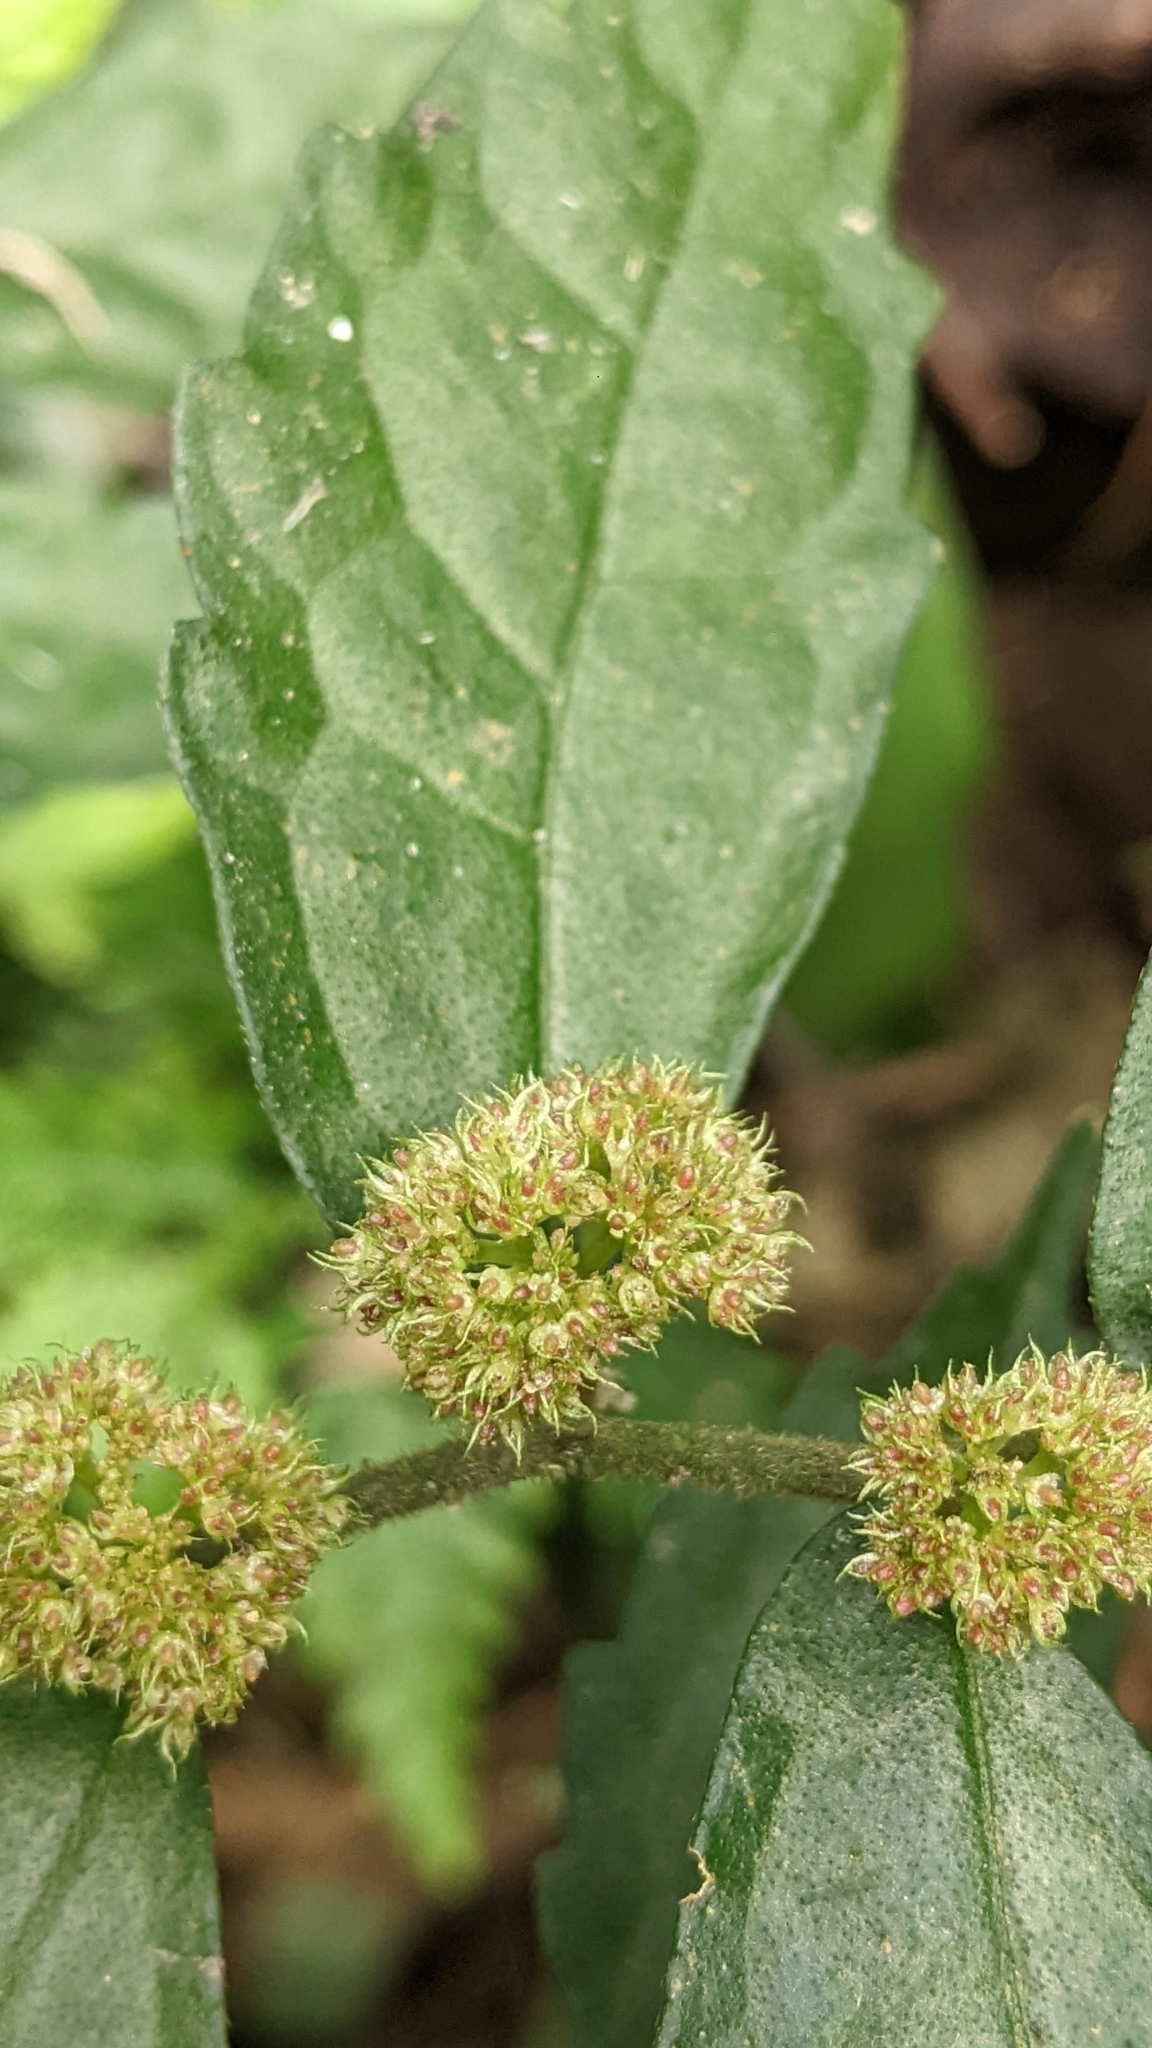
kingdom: Plantae
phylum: Tracheophyta
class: Magnoliopsida
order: Rosales
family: Urticaceae
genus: Elatostema
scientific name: Elatostema scabrum
